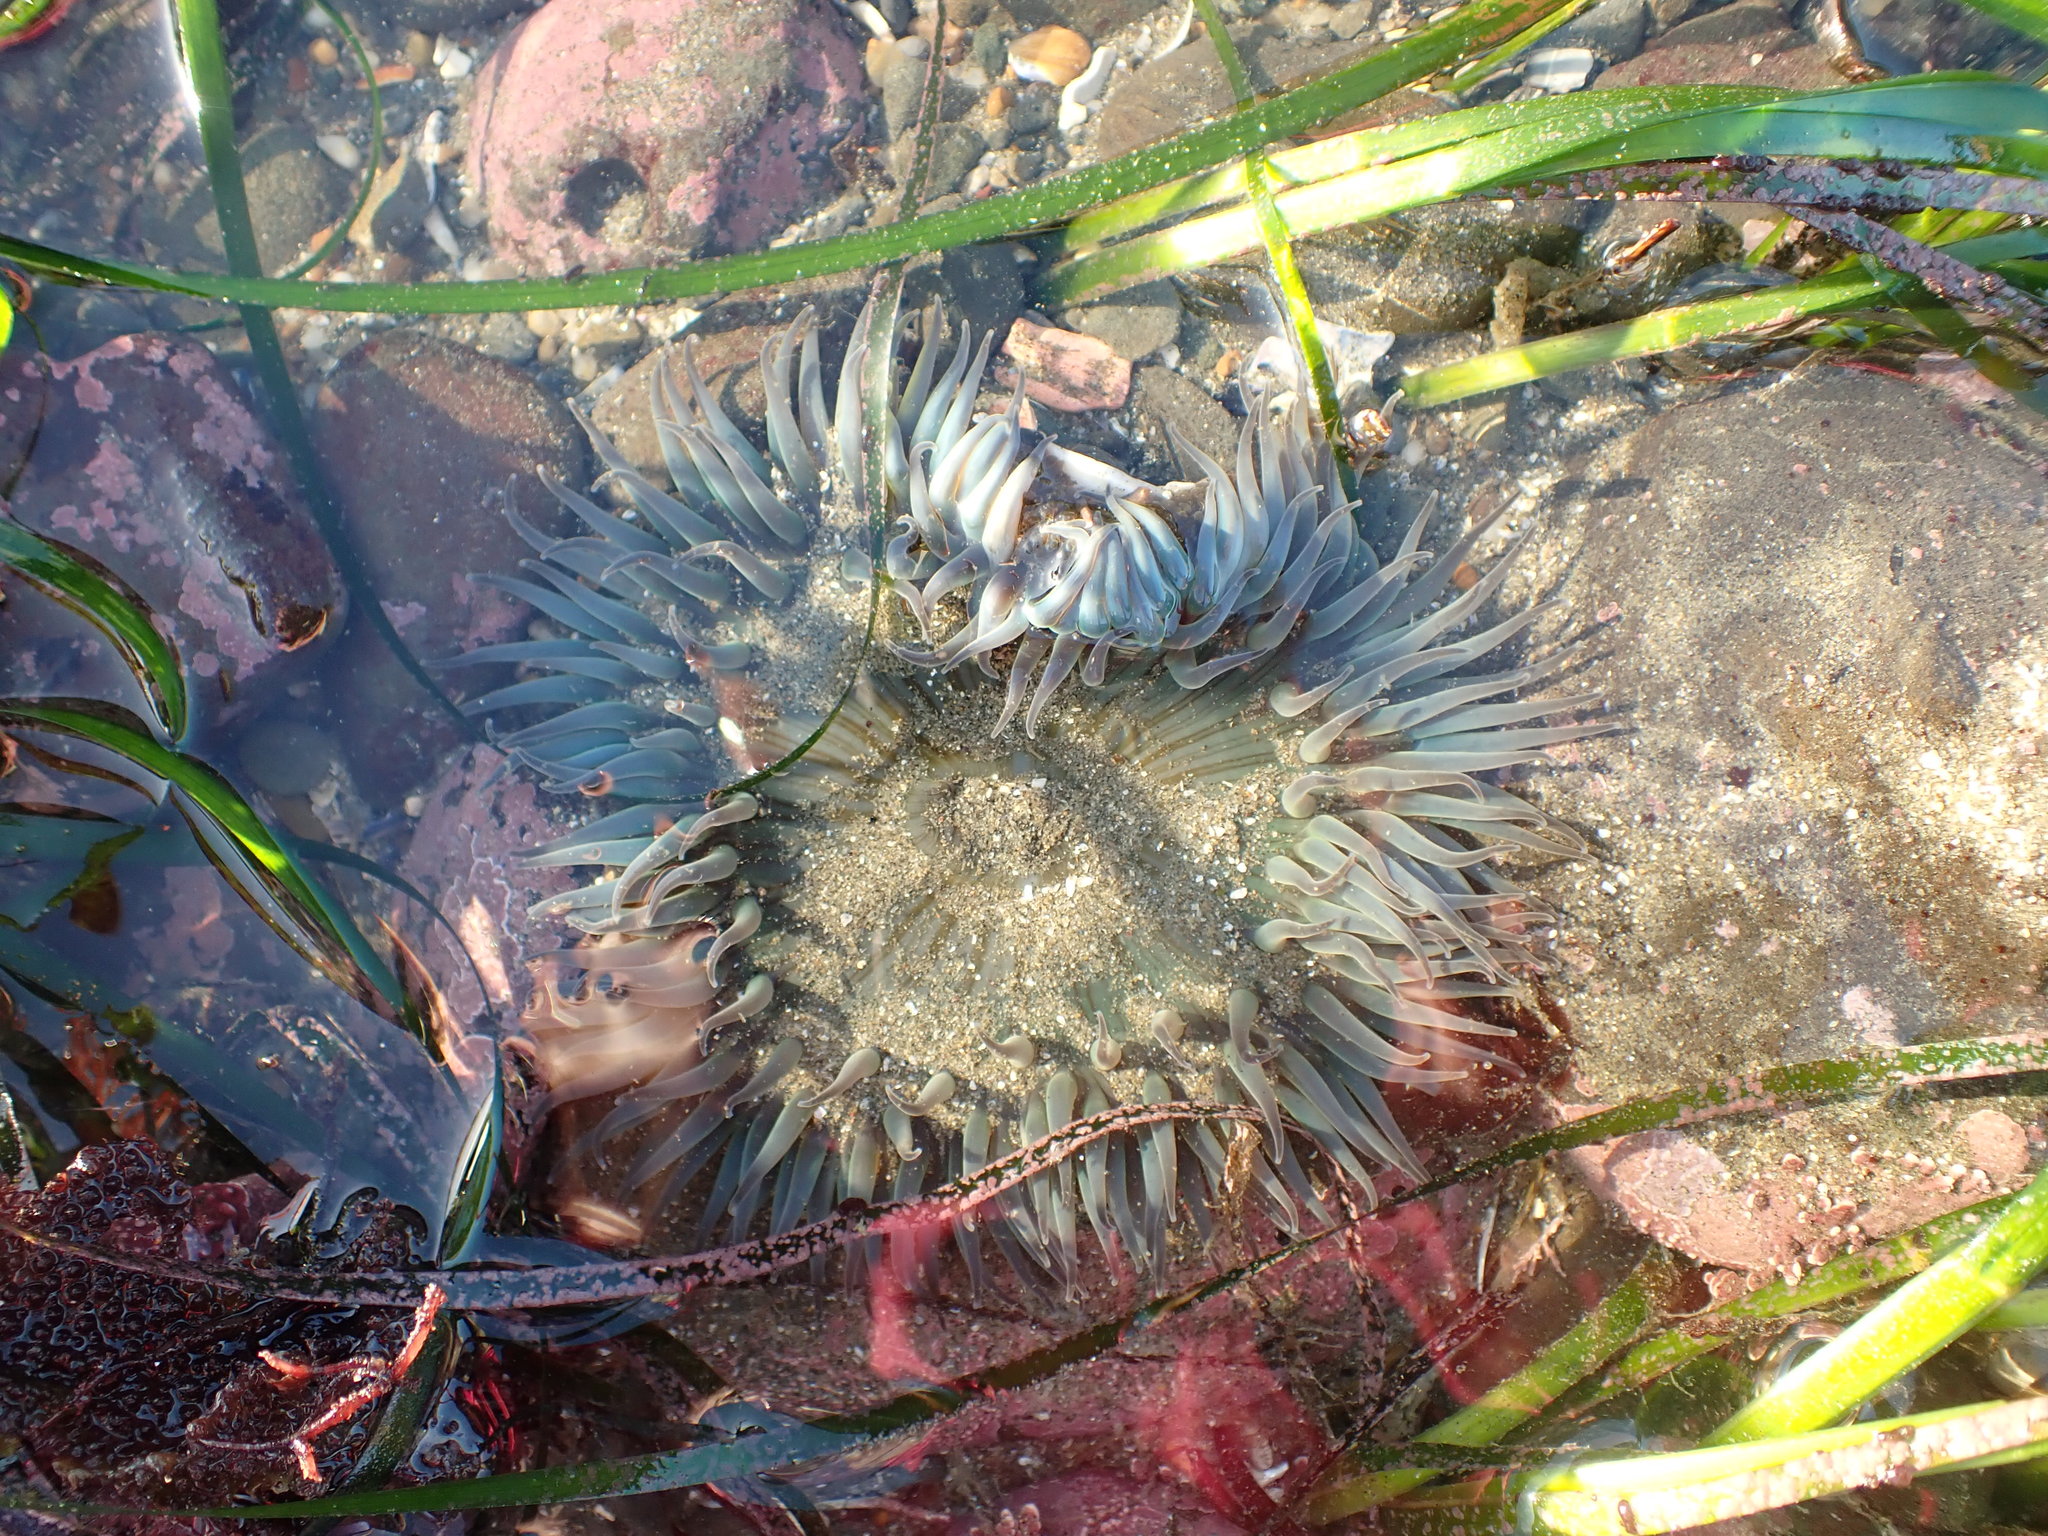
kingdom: Animalia
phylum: Cnidaria
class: Anthozoa
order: Actiniaria
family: Actiniidae
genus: Anthopleura
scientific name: Anthopleura sola
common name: Sun anemone
